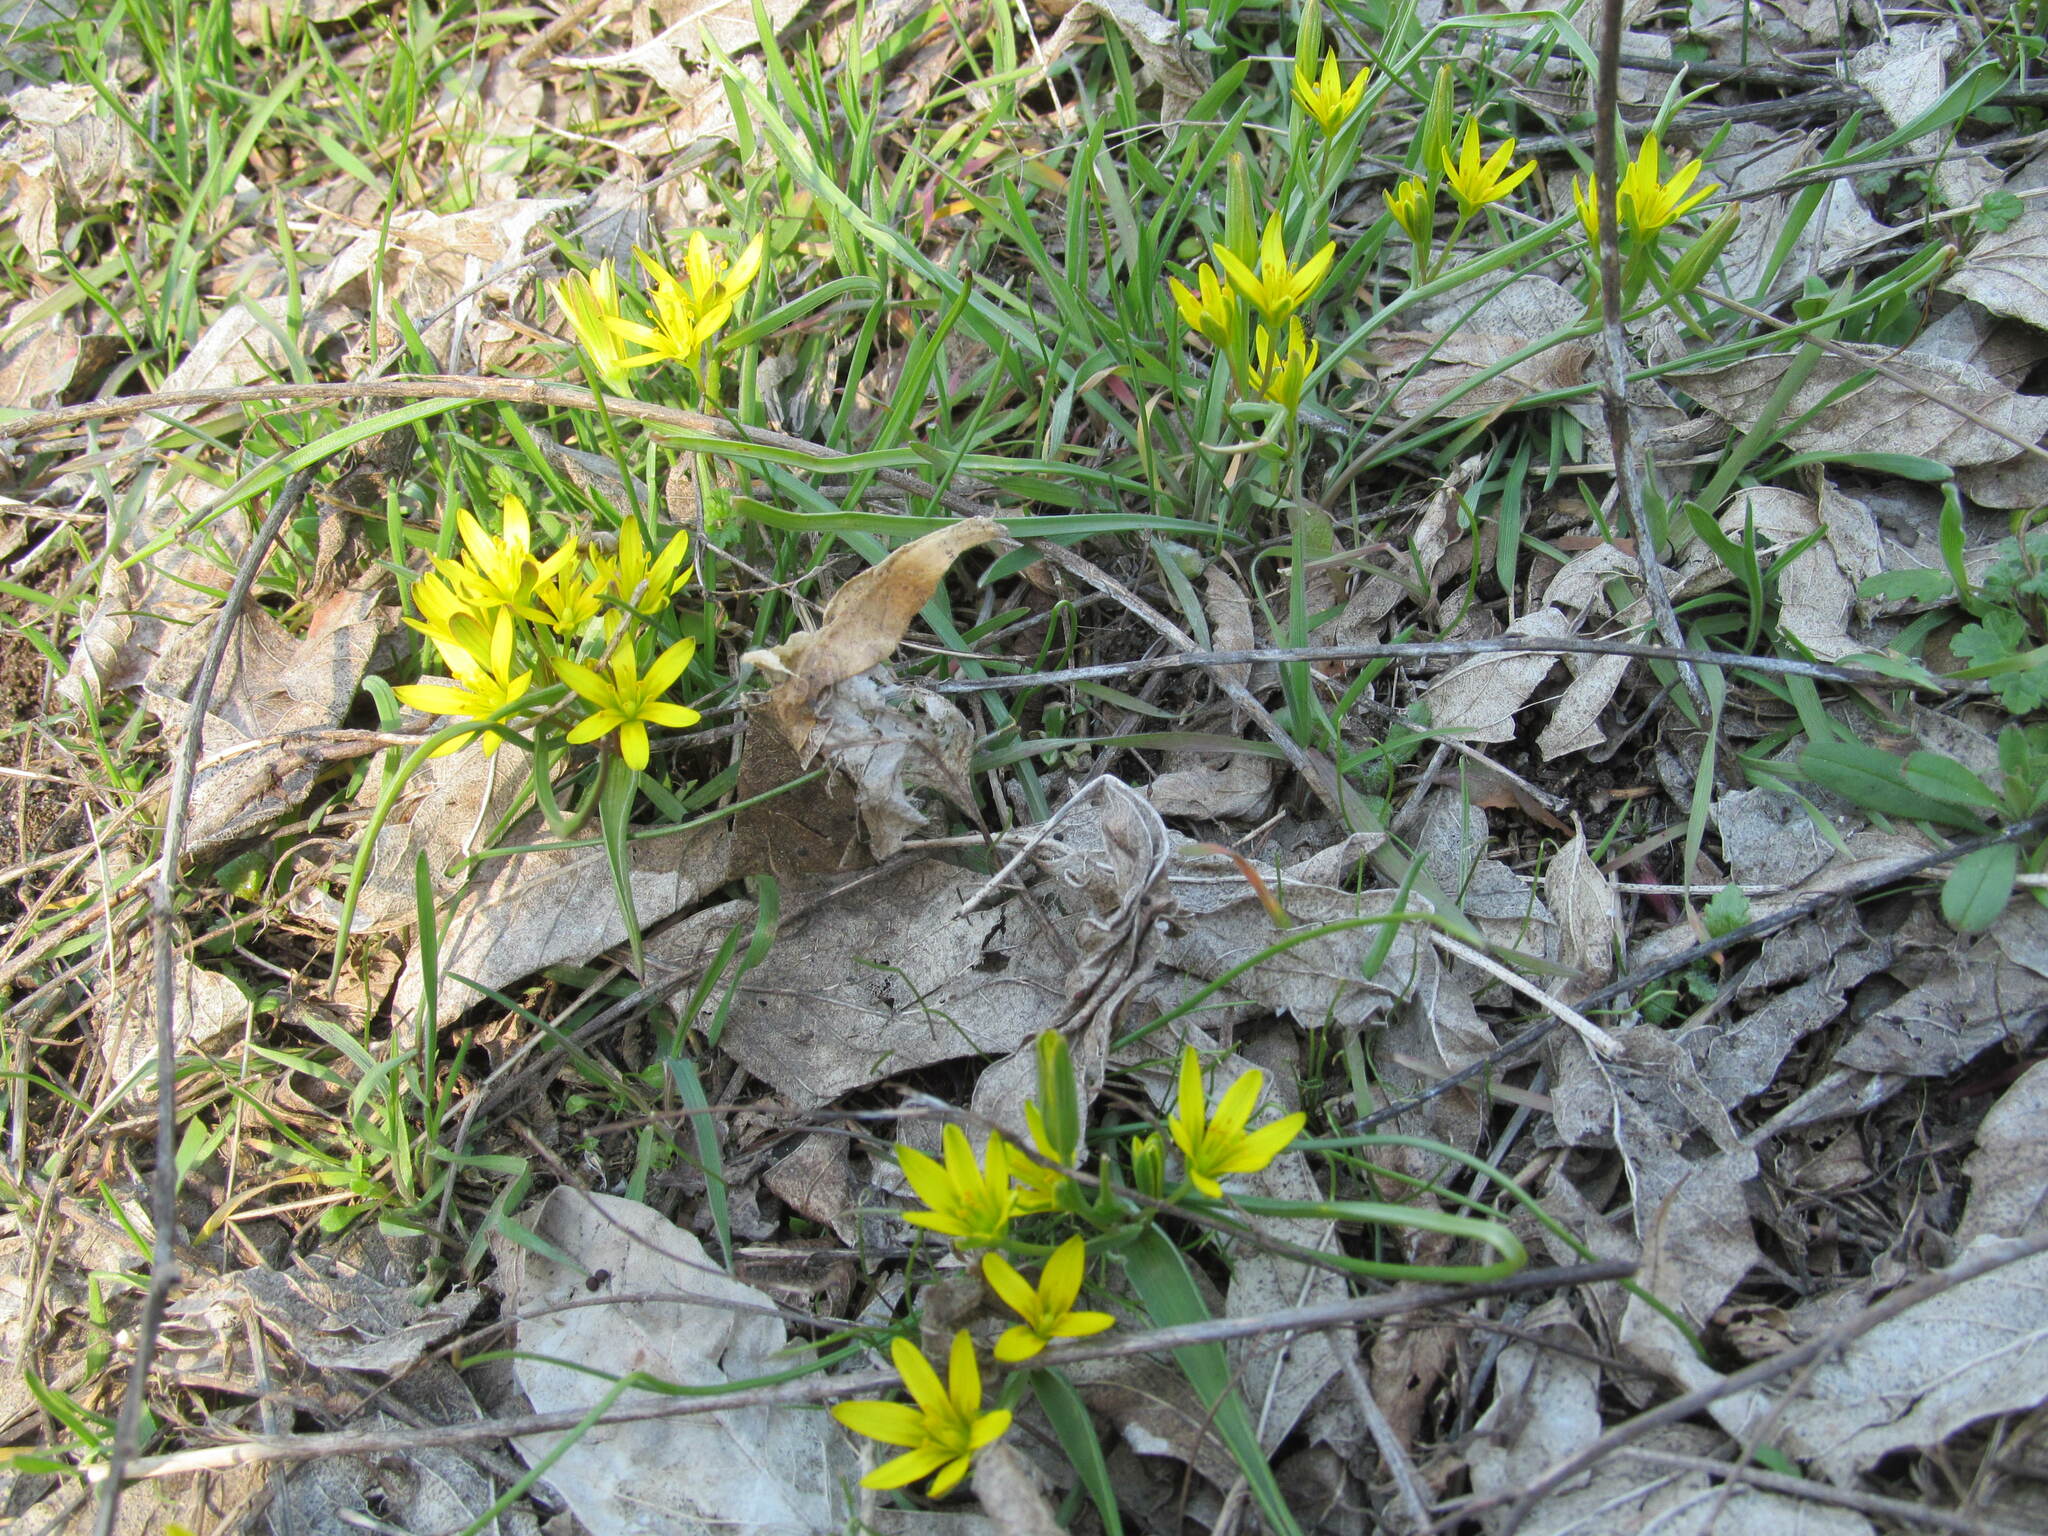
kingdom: Plantae
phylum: Tracheophyta
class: Liliopsida
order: Liliales
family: Liliaceae
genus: Gagea
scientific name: Gagea pusilla
